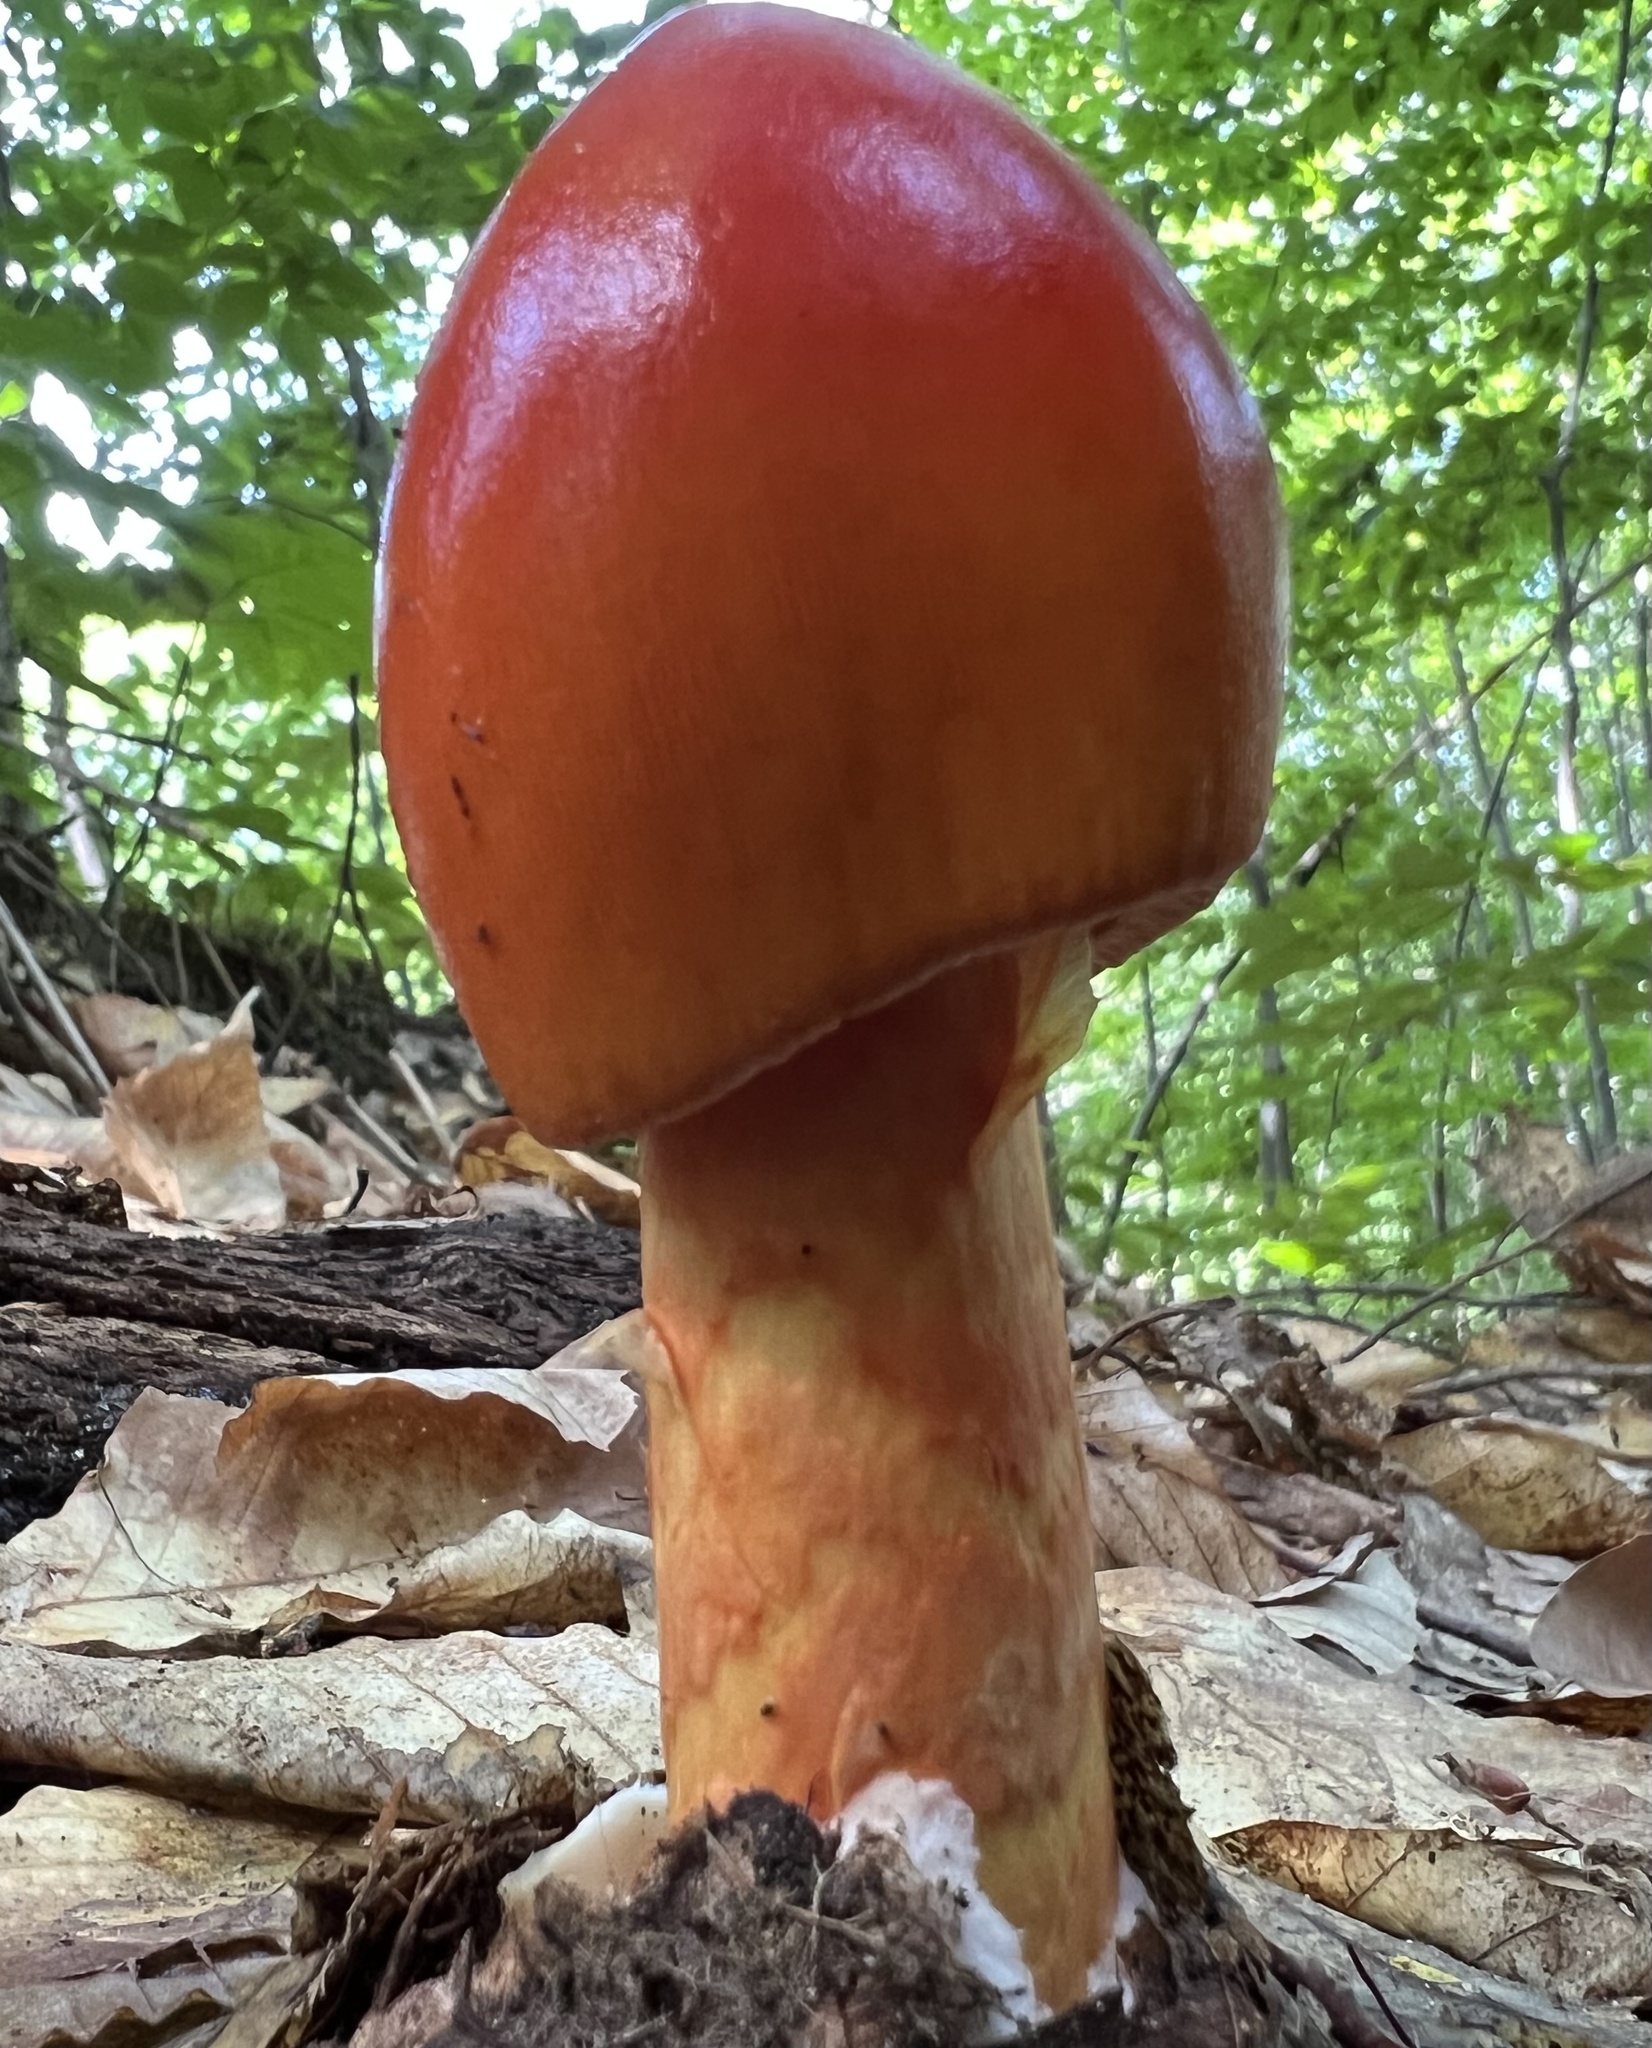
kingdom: Fungi
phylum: Basidiomycota
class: Agaricomycetes
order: Agaricales
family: Amanitaceae
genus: Amanita
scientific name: Amanita jacksonii
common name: Jackson's slender caesar
